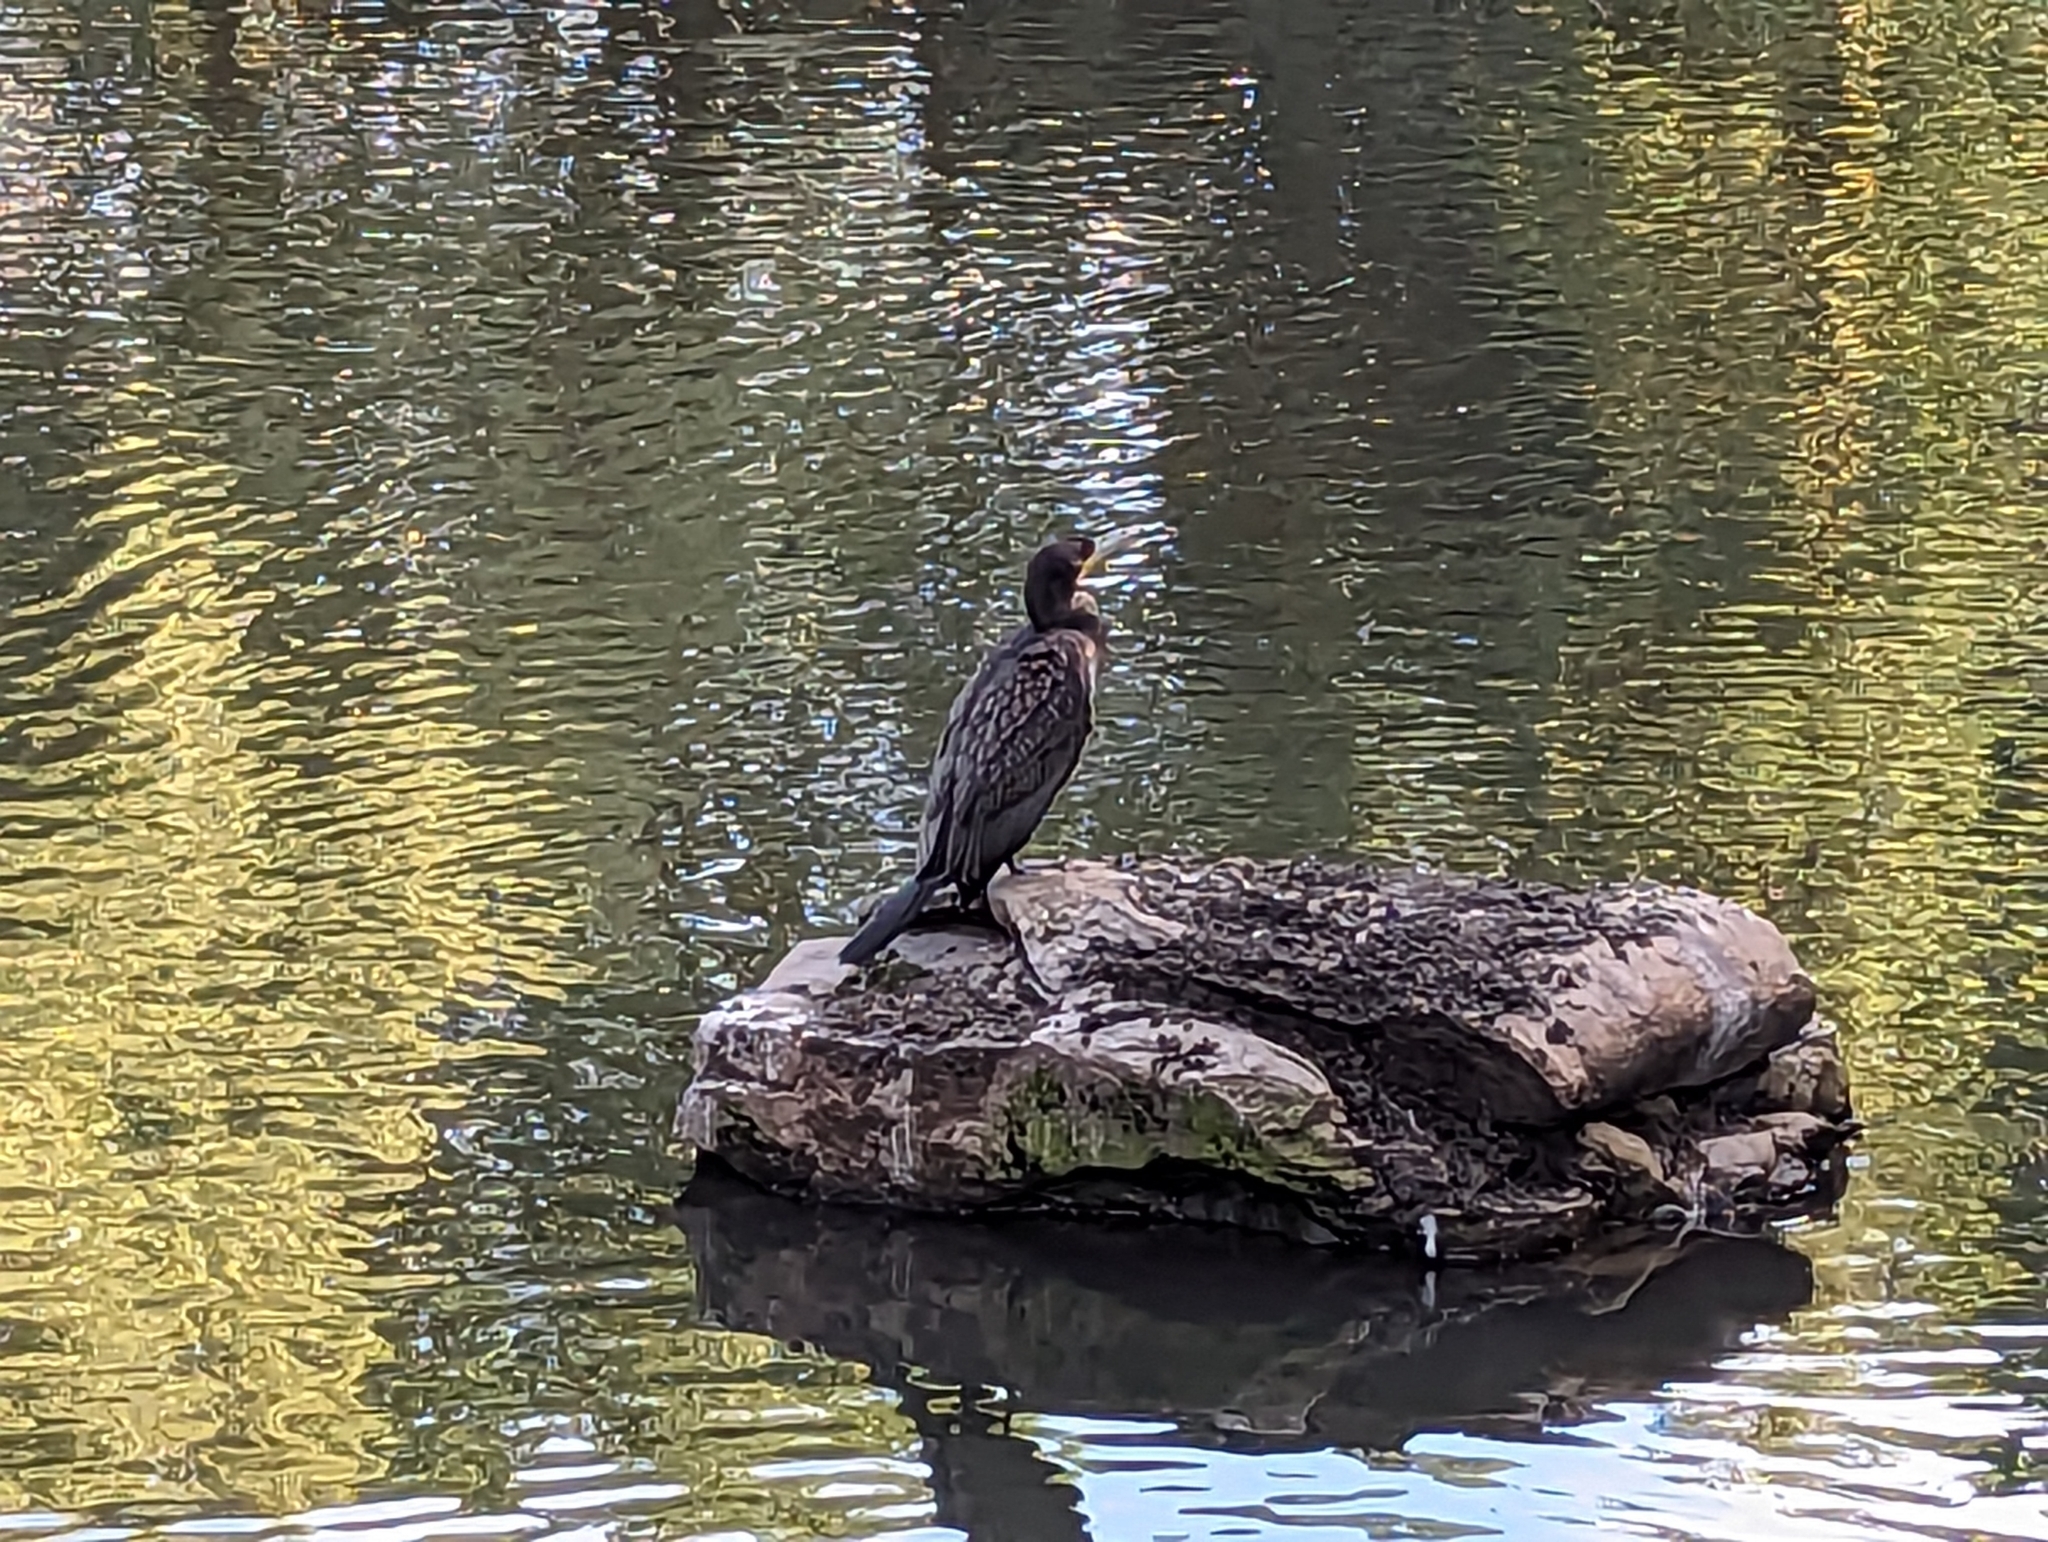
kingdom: Animalia
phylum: Chordata
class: Aves
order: Suliformes
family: Phalacrocoracidae
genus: Phalacrocorax
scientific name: Phalacrocorax carbo
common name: Great cormorant
